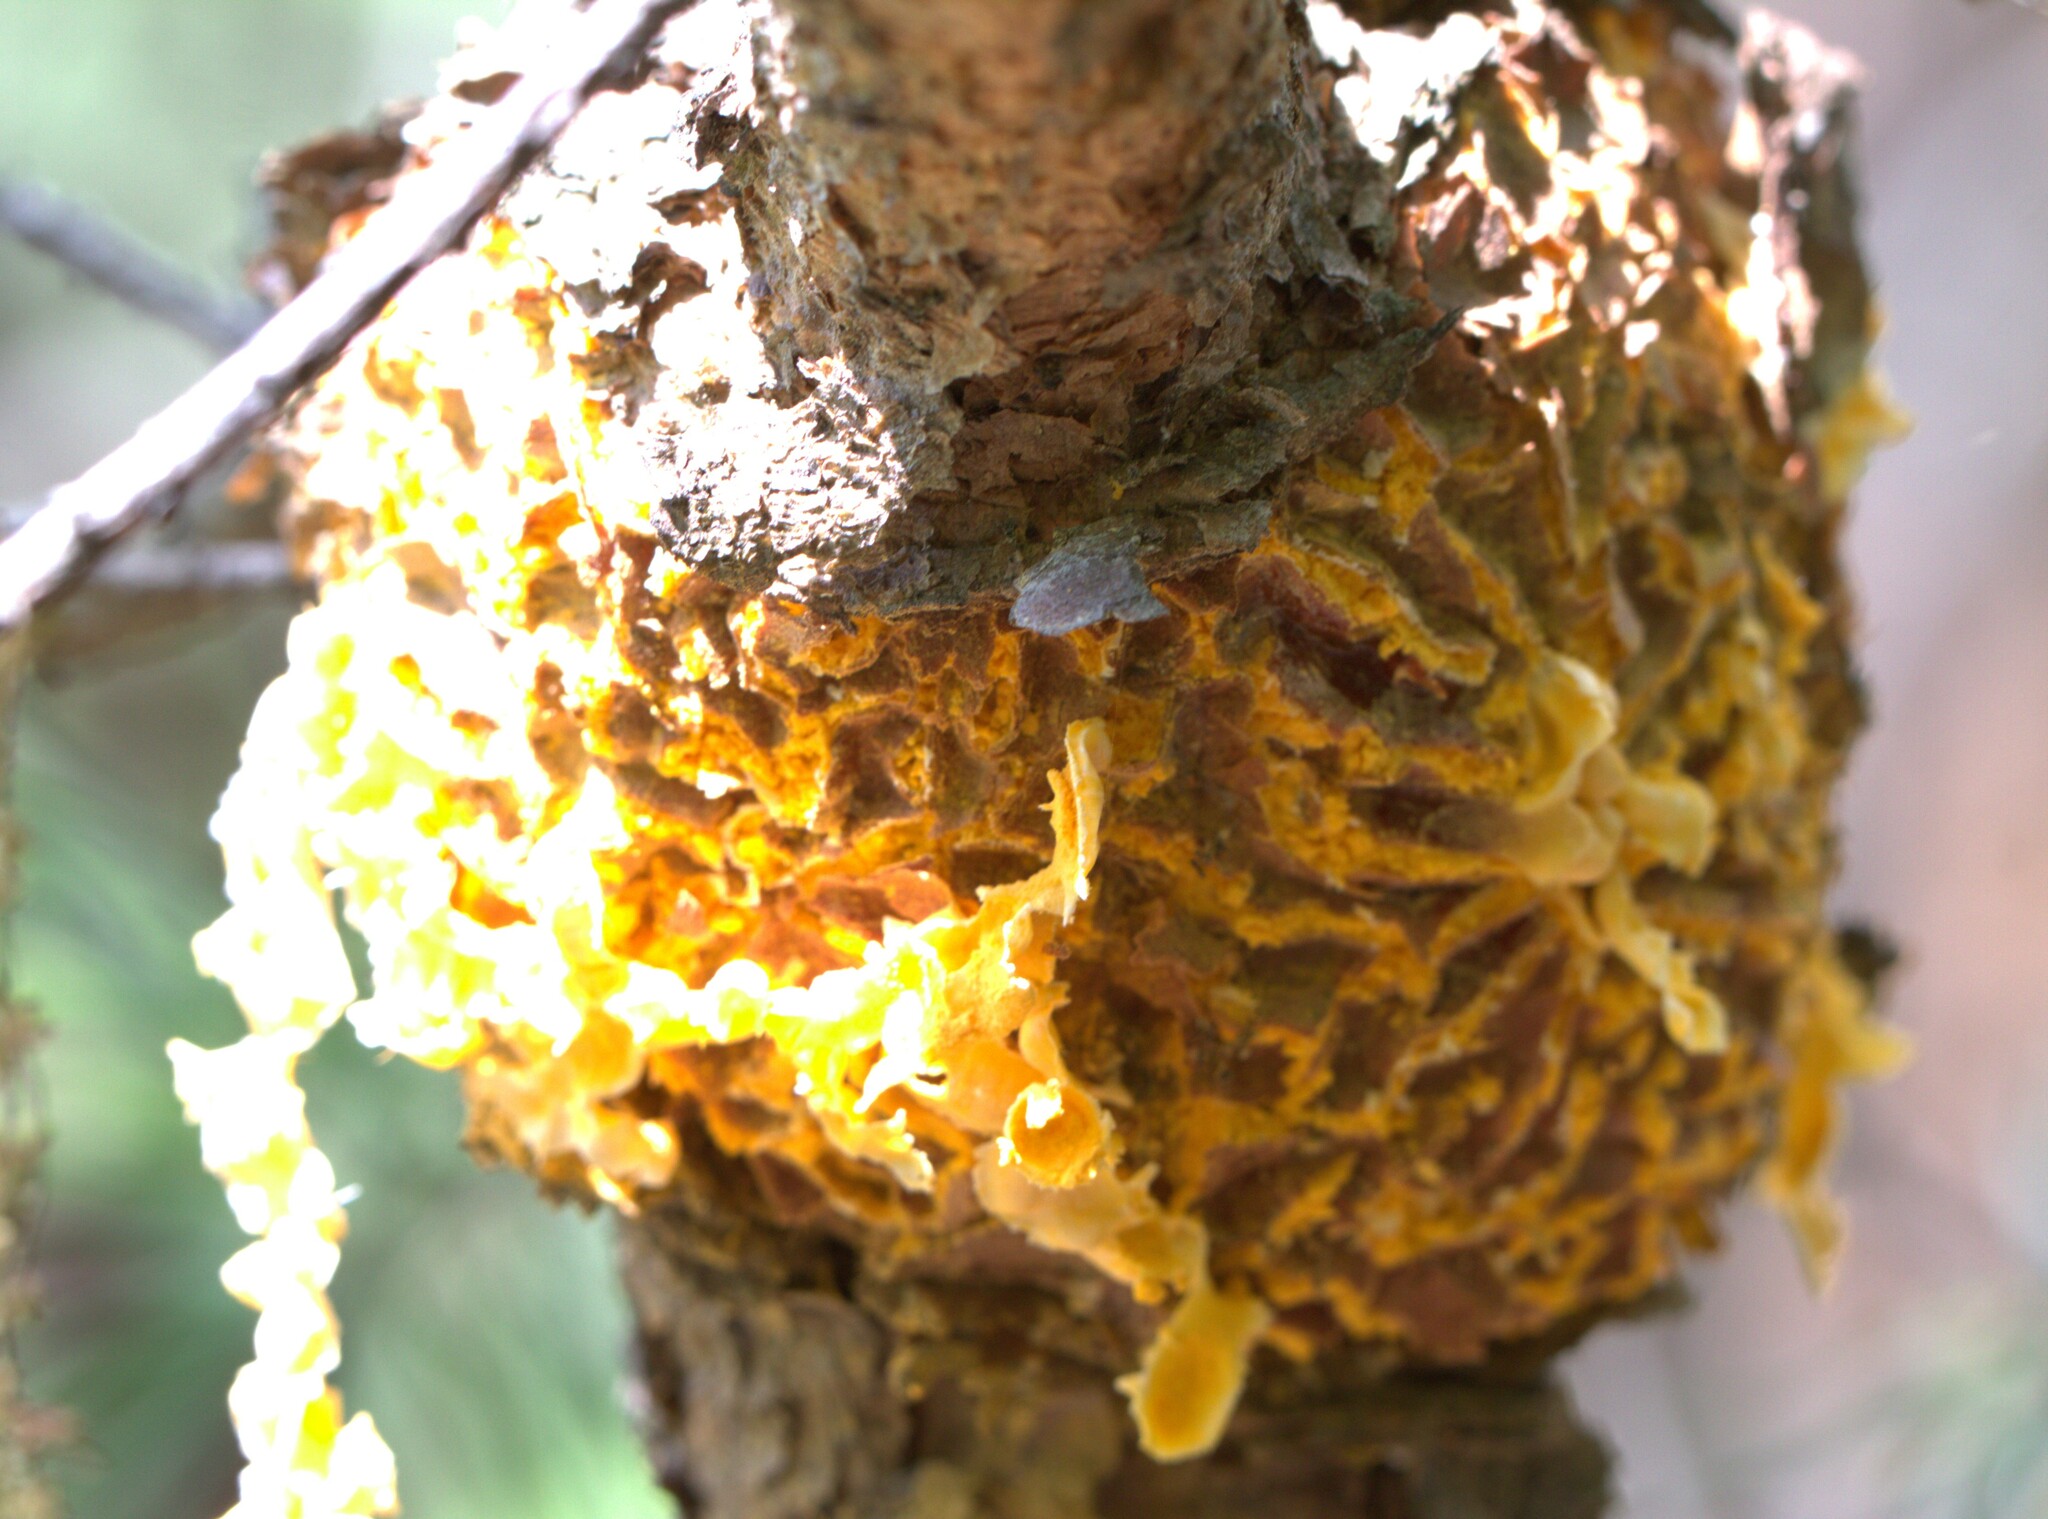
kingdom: Fungi
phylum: Basidiomycota
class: Pucciniomycetes
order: Pucciniales
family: Cronartiaceae
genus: Cronartium
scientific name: Cronartium quercuum
